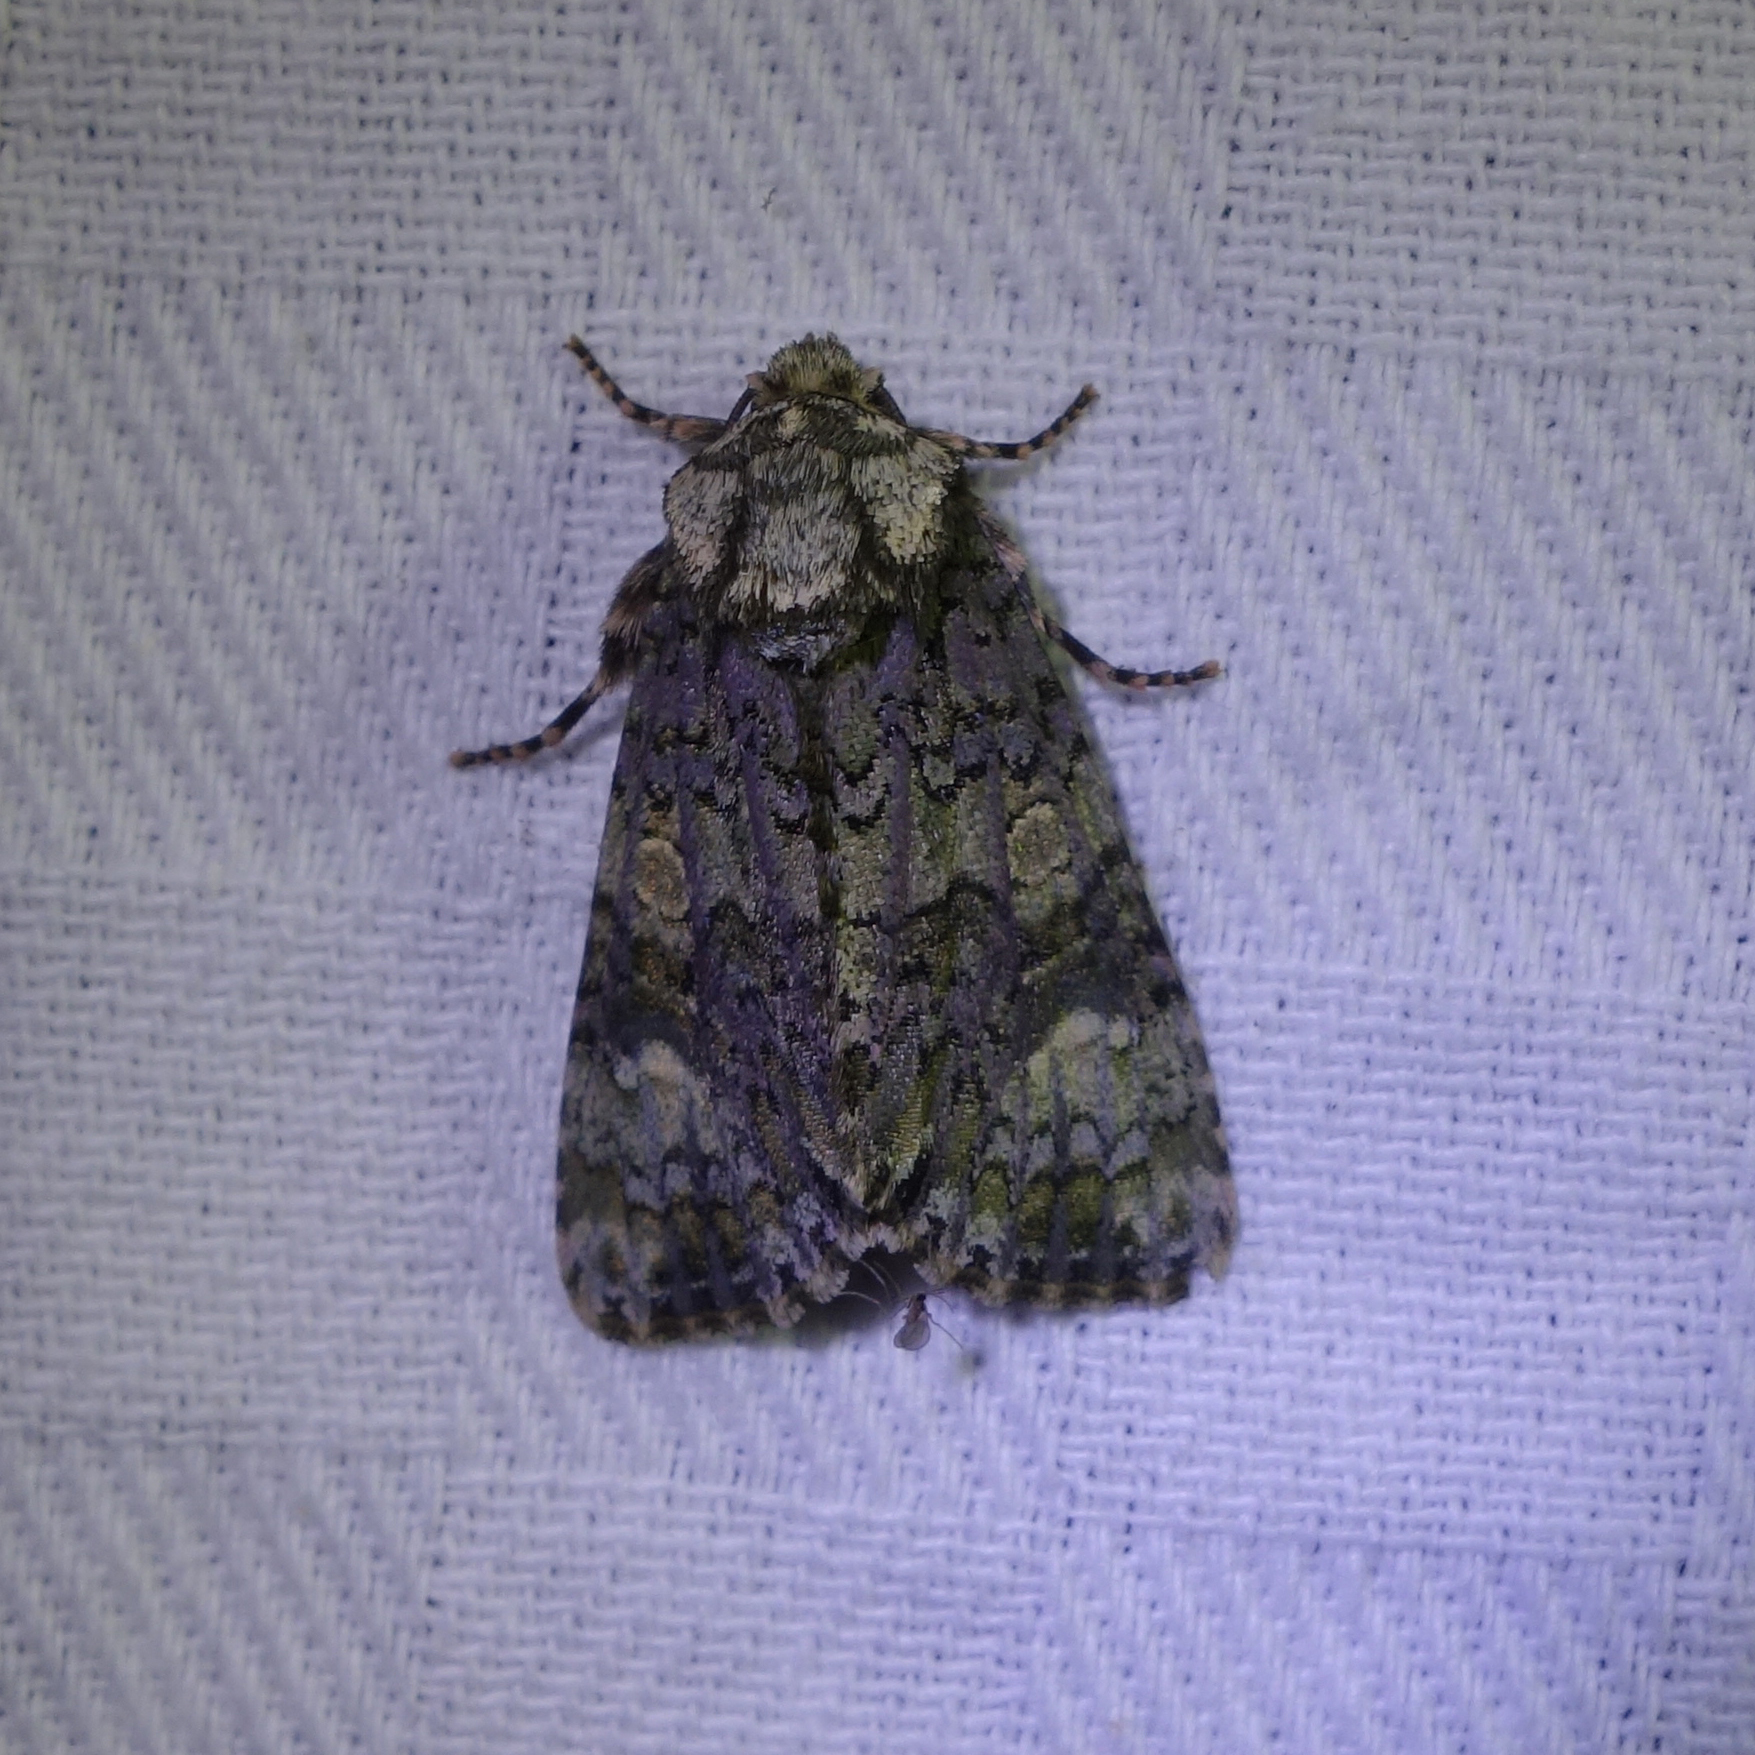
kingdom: Animalia
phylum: Arthropoda
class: Insecta
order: Lepidoptera
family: Noctuidae
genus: Craniophora
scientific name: Craniophora ligustri
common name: Coronet
